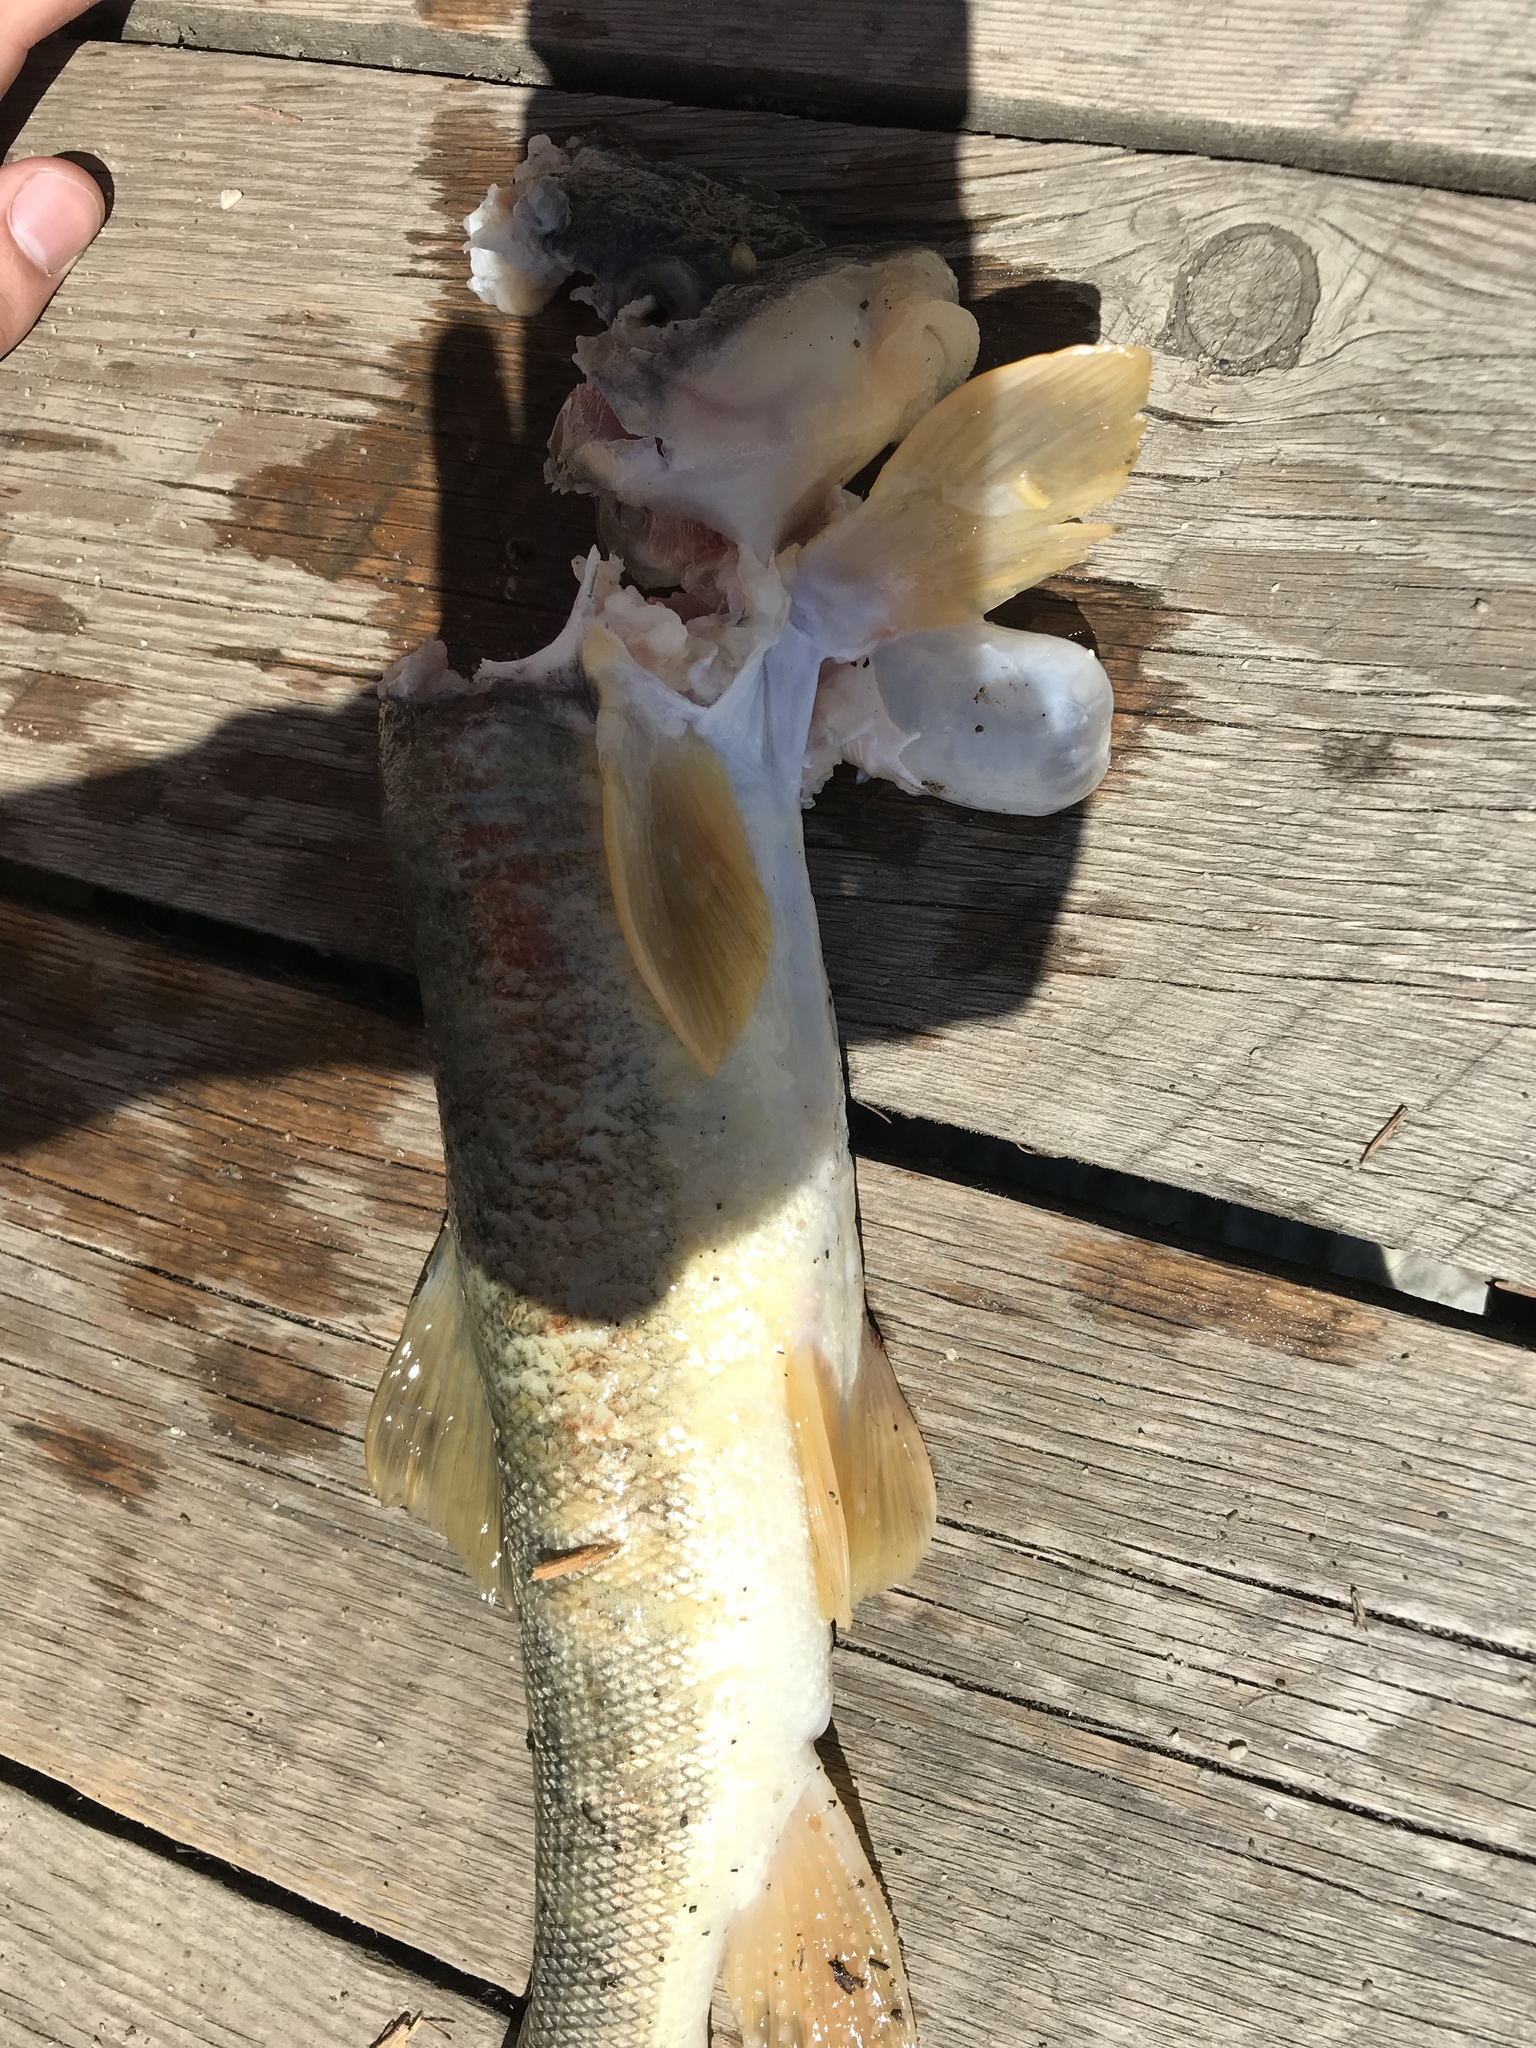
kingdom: Animalia
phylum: Chordata
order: Cypriniformes
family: Catostomidae
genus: Catostomus
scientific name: Catostomus catostomus
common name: Longnose sucker
